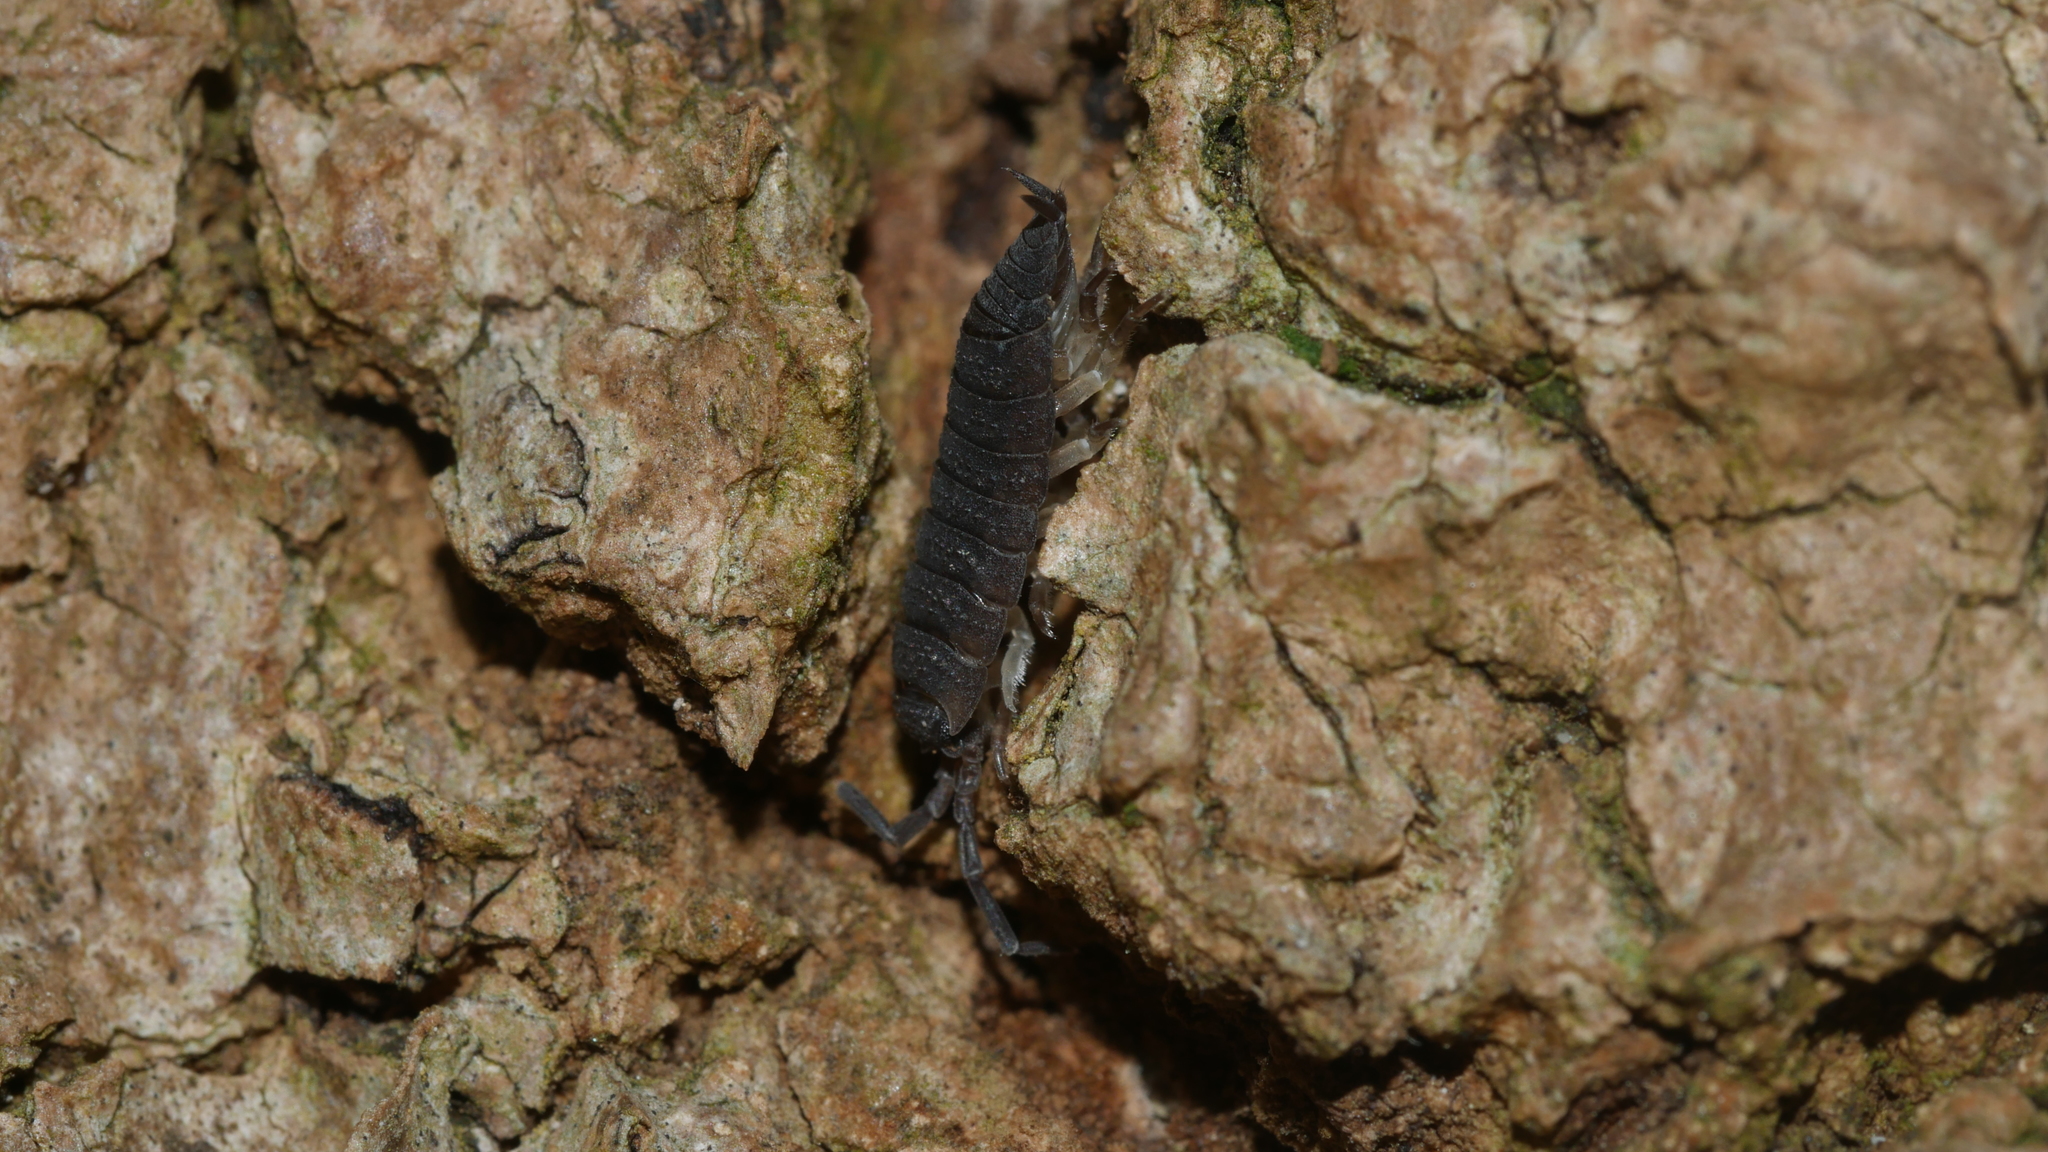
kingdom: Animalia
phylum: Arthropoda
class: Malacostraca
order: Isopoda
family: Porcellionidae
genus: Porcellio
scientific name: Porcellio scaber
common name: Common rough woodlouse
